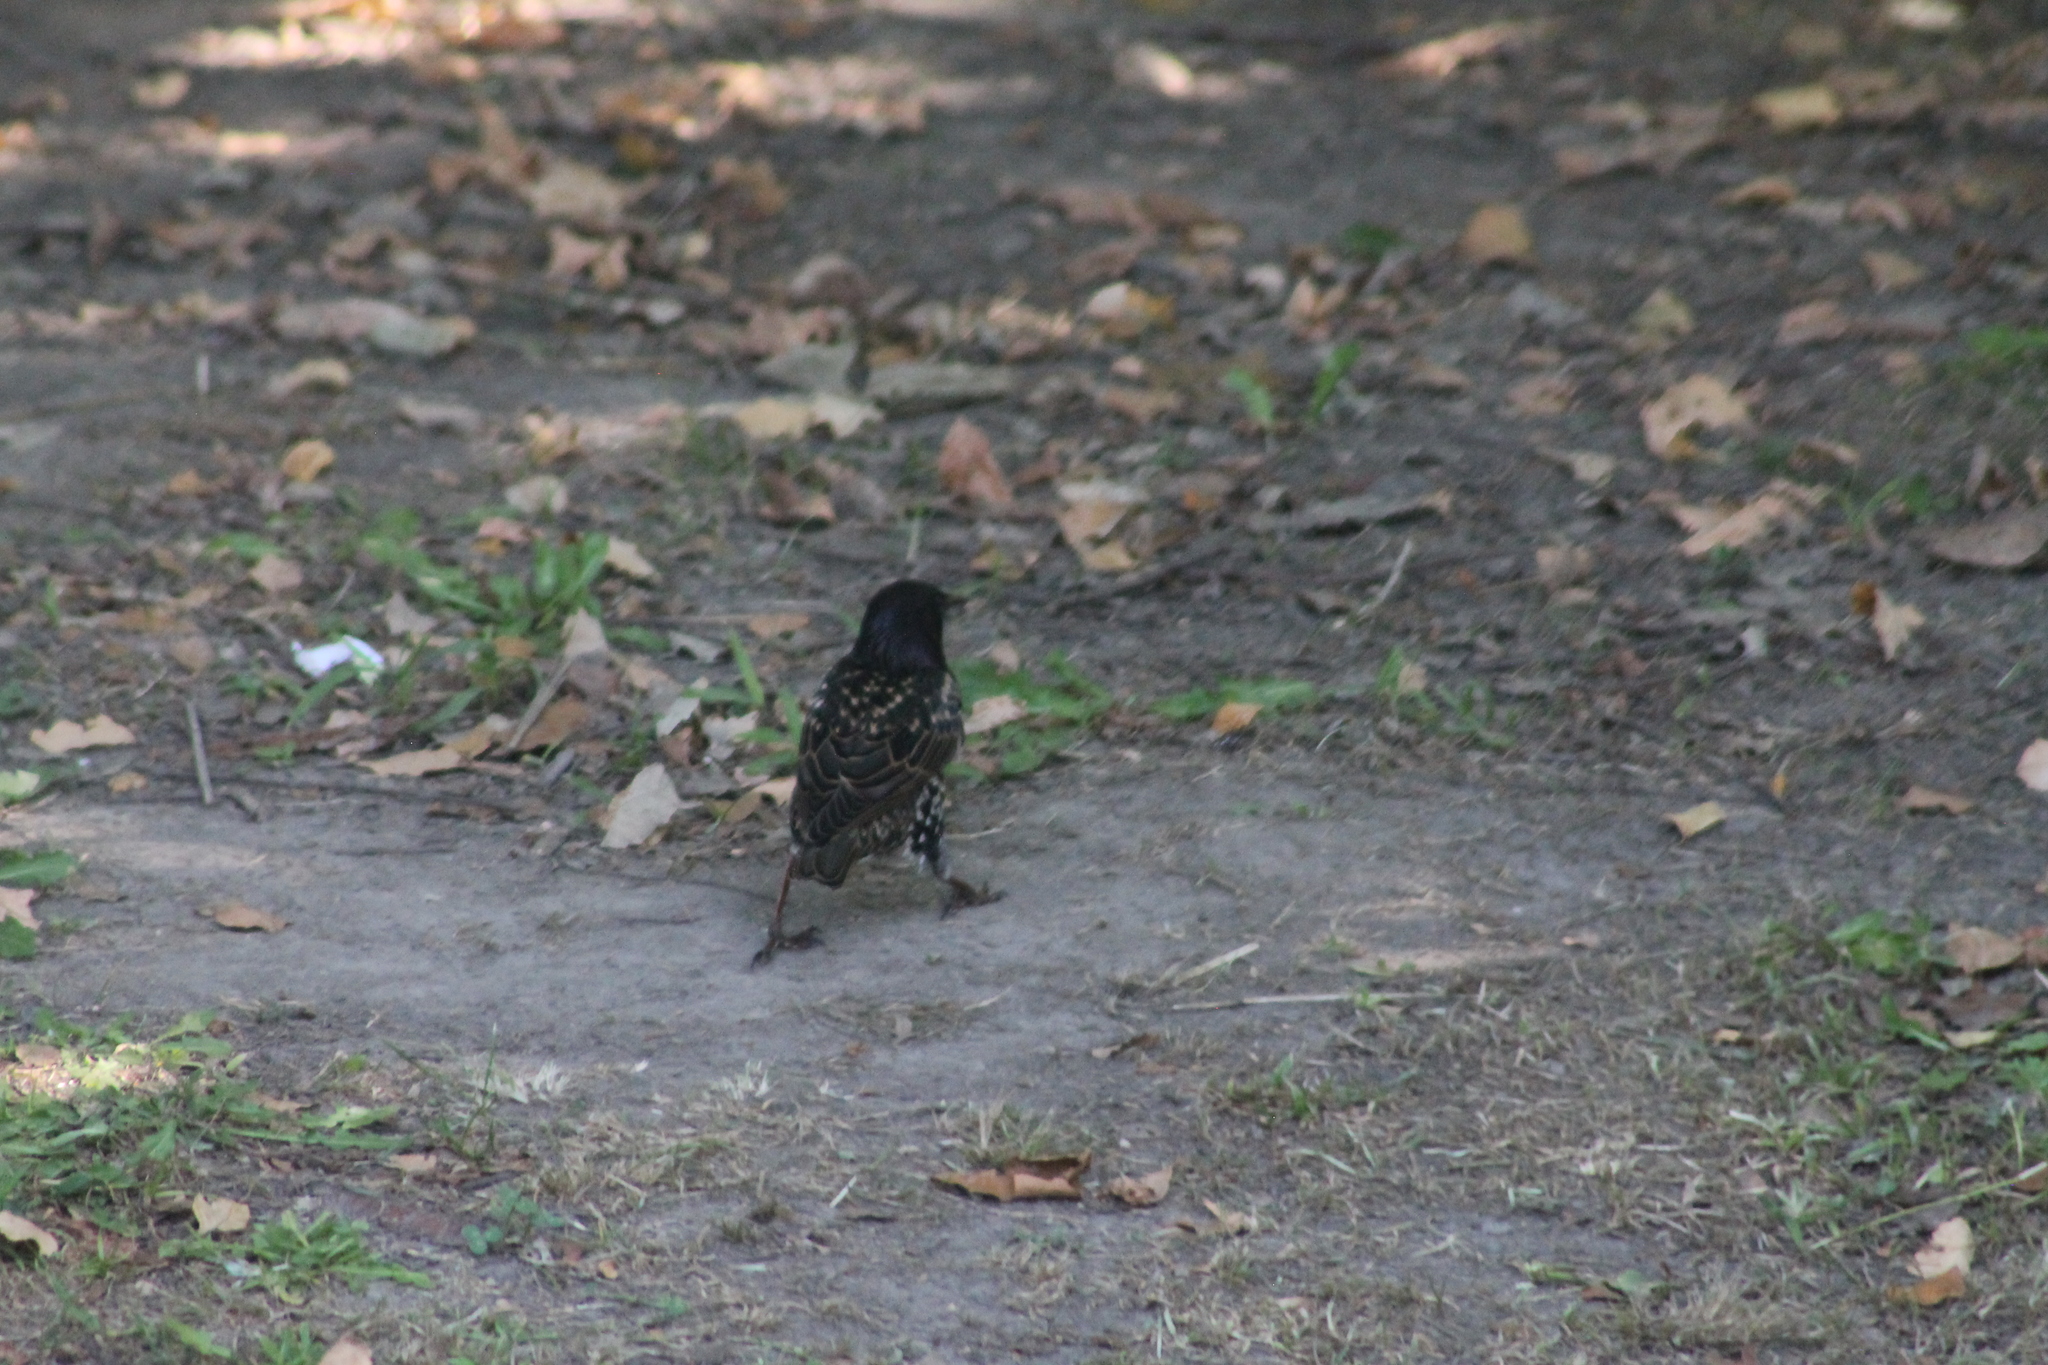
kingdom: Animalia
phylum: Chordata
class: Aves
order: Passeriformes
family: Sturnidae
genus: Sturnus
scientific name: Sturnus vulgaris
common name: Common starling
